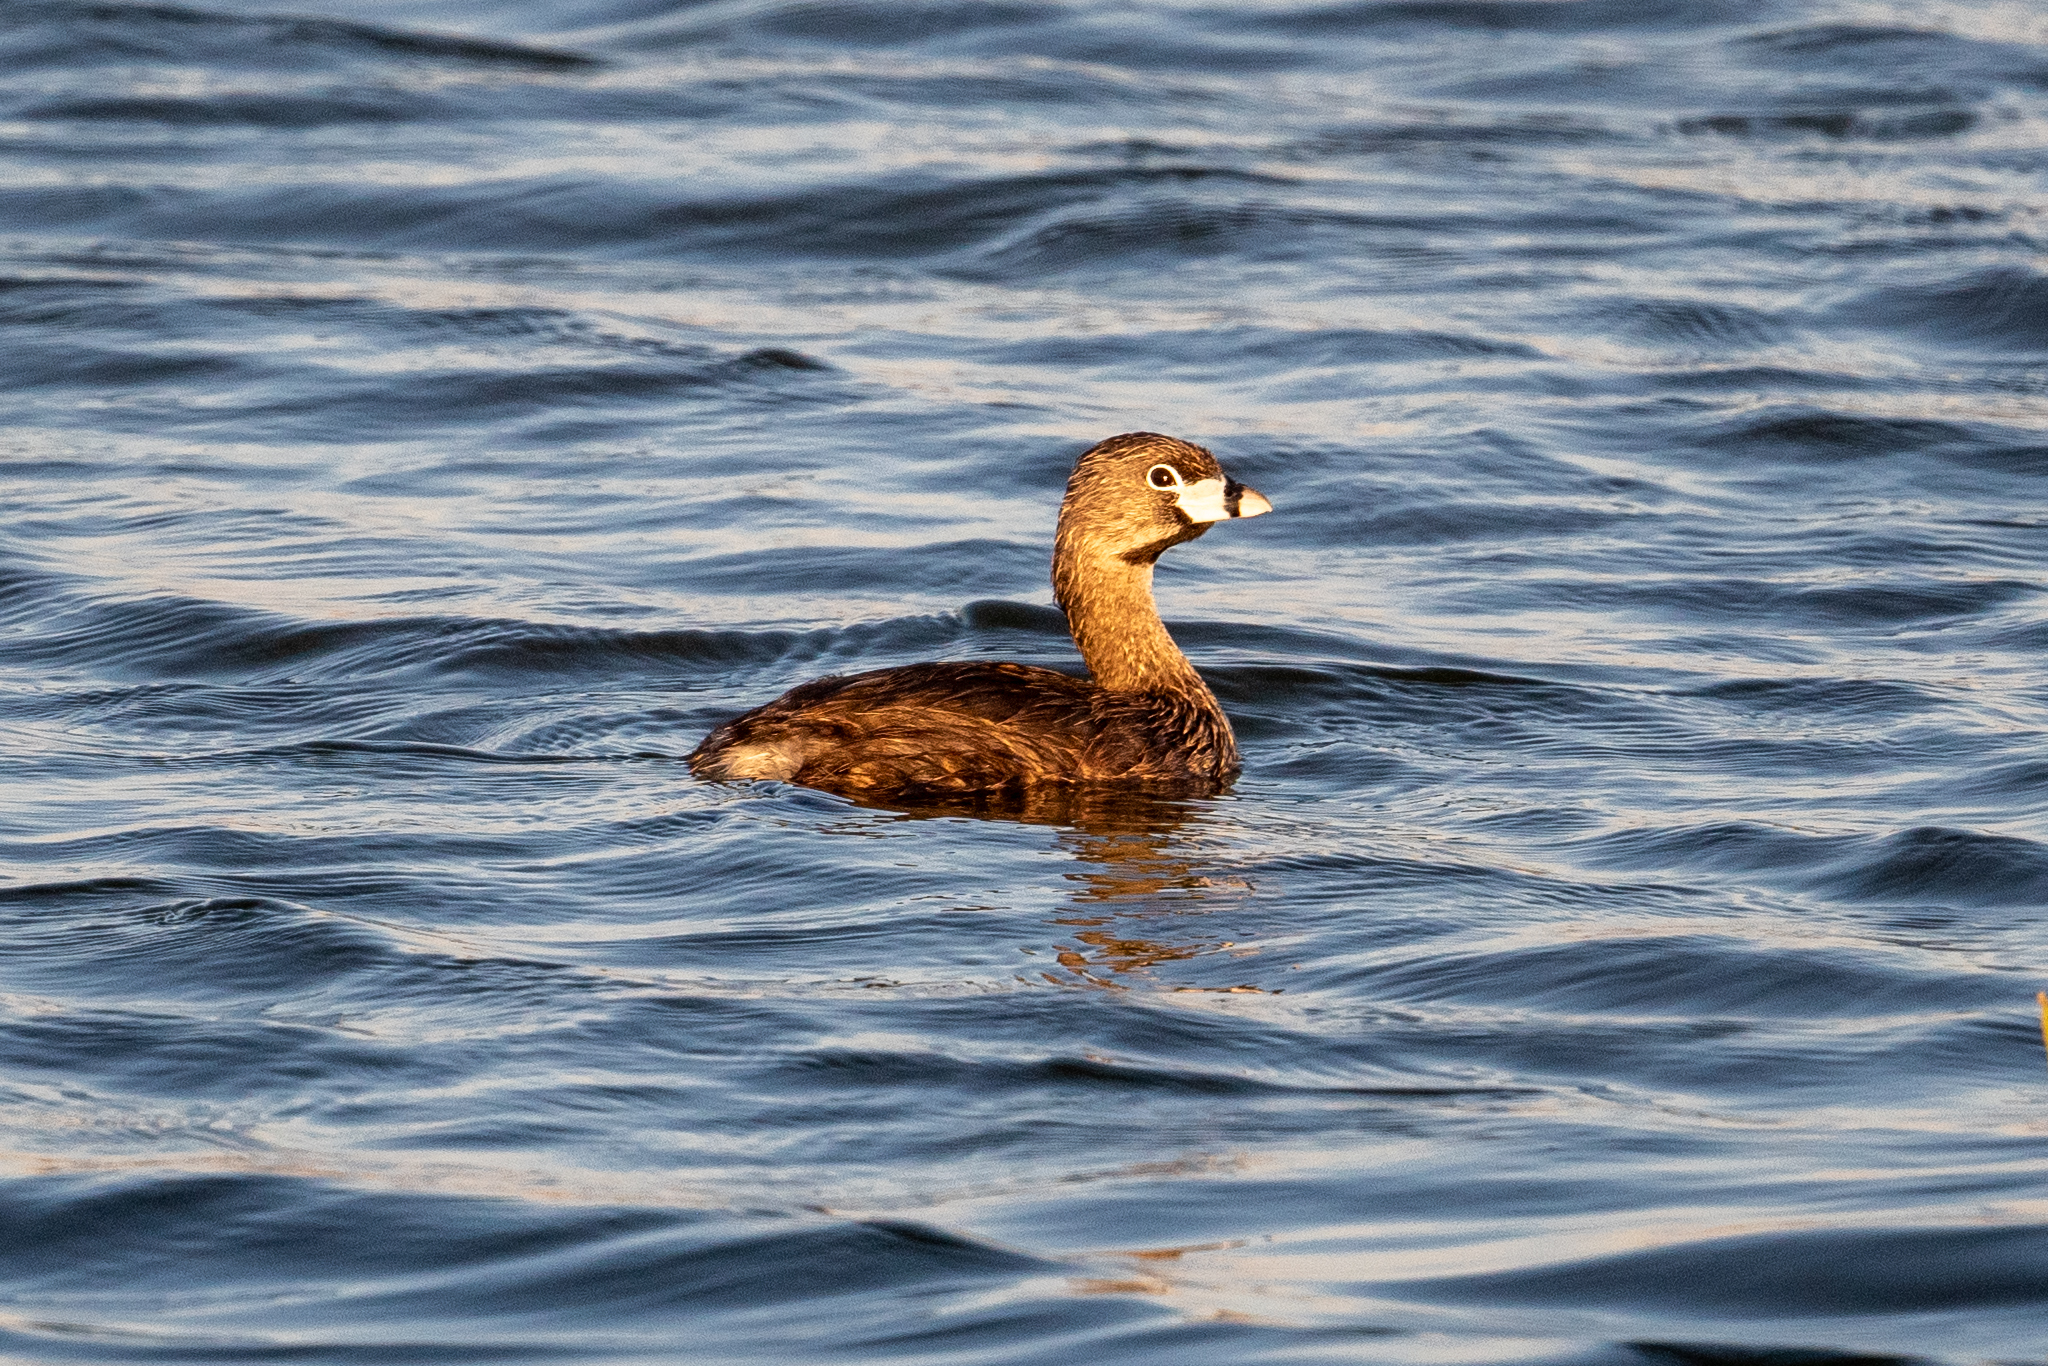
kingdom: Animalia
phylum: Chordata
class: Aves
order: Podicipediformes
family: Podicipedidae
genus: Podilymbus
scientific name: Podilymbus podiceps
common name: Pied-billed grebe
